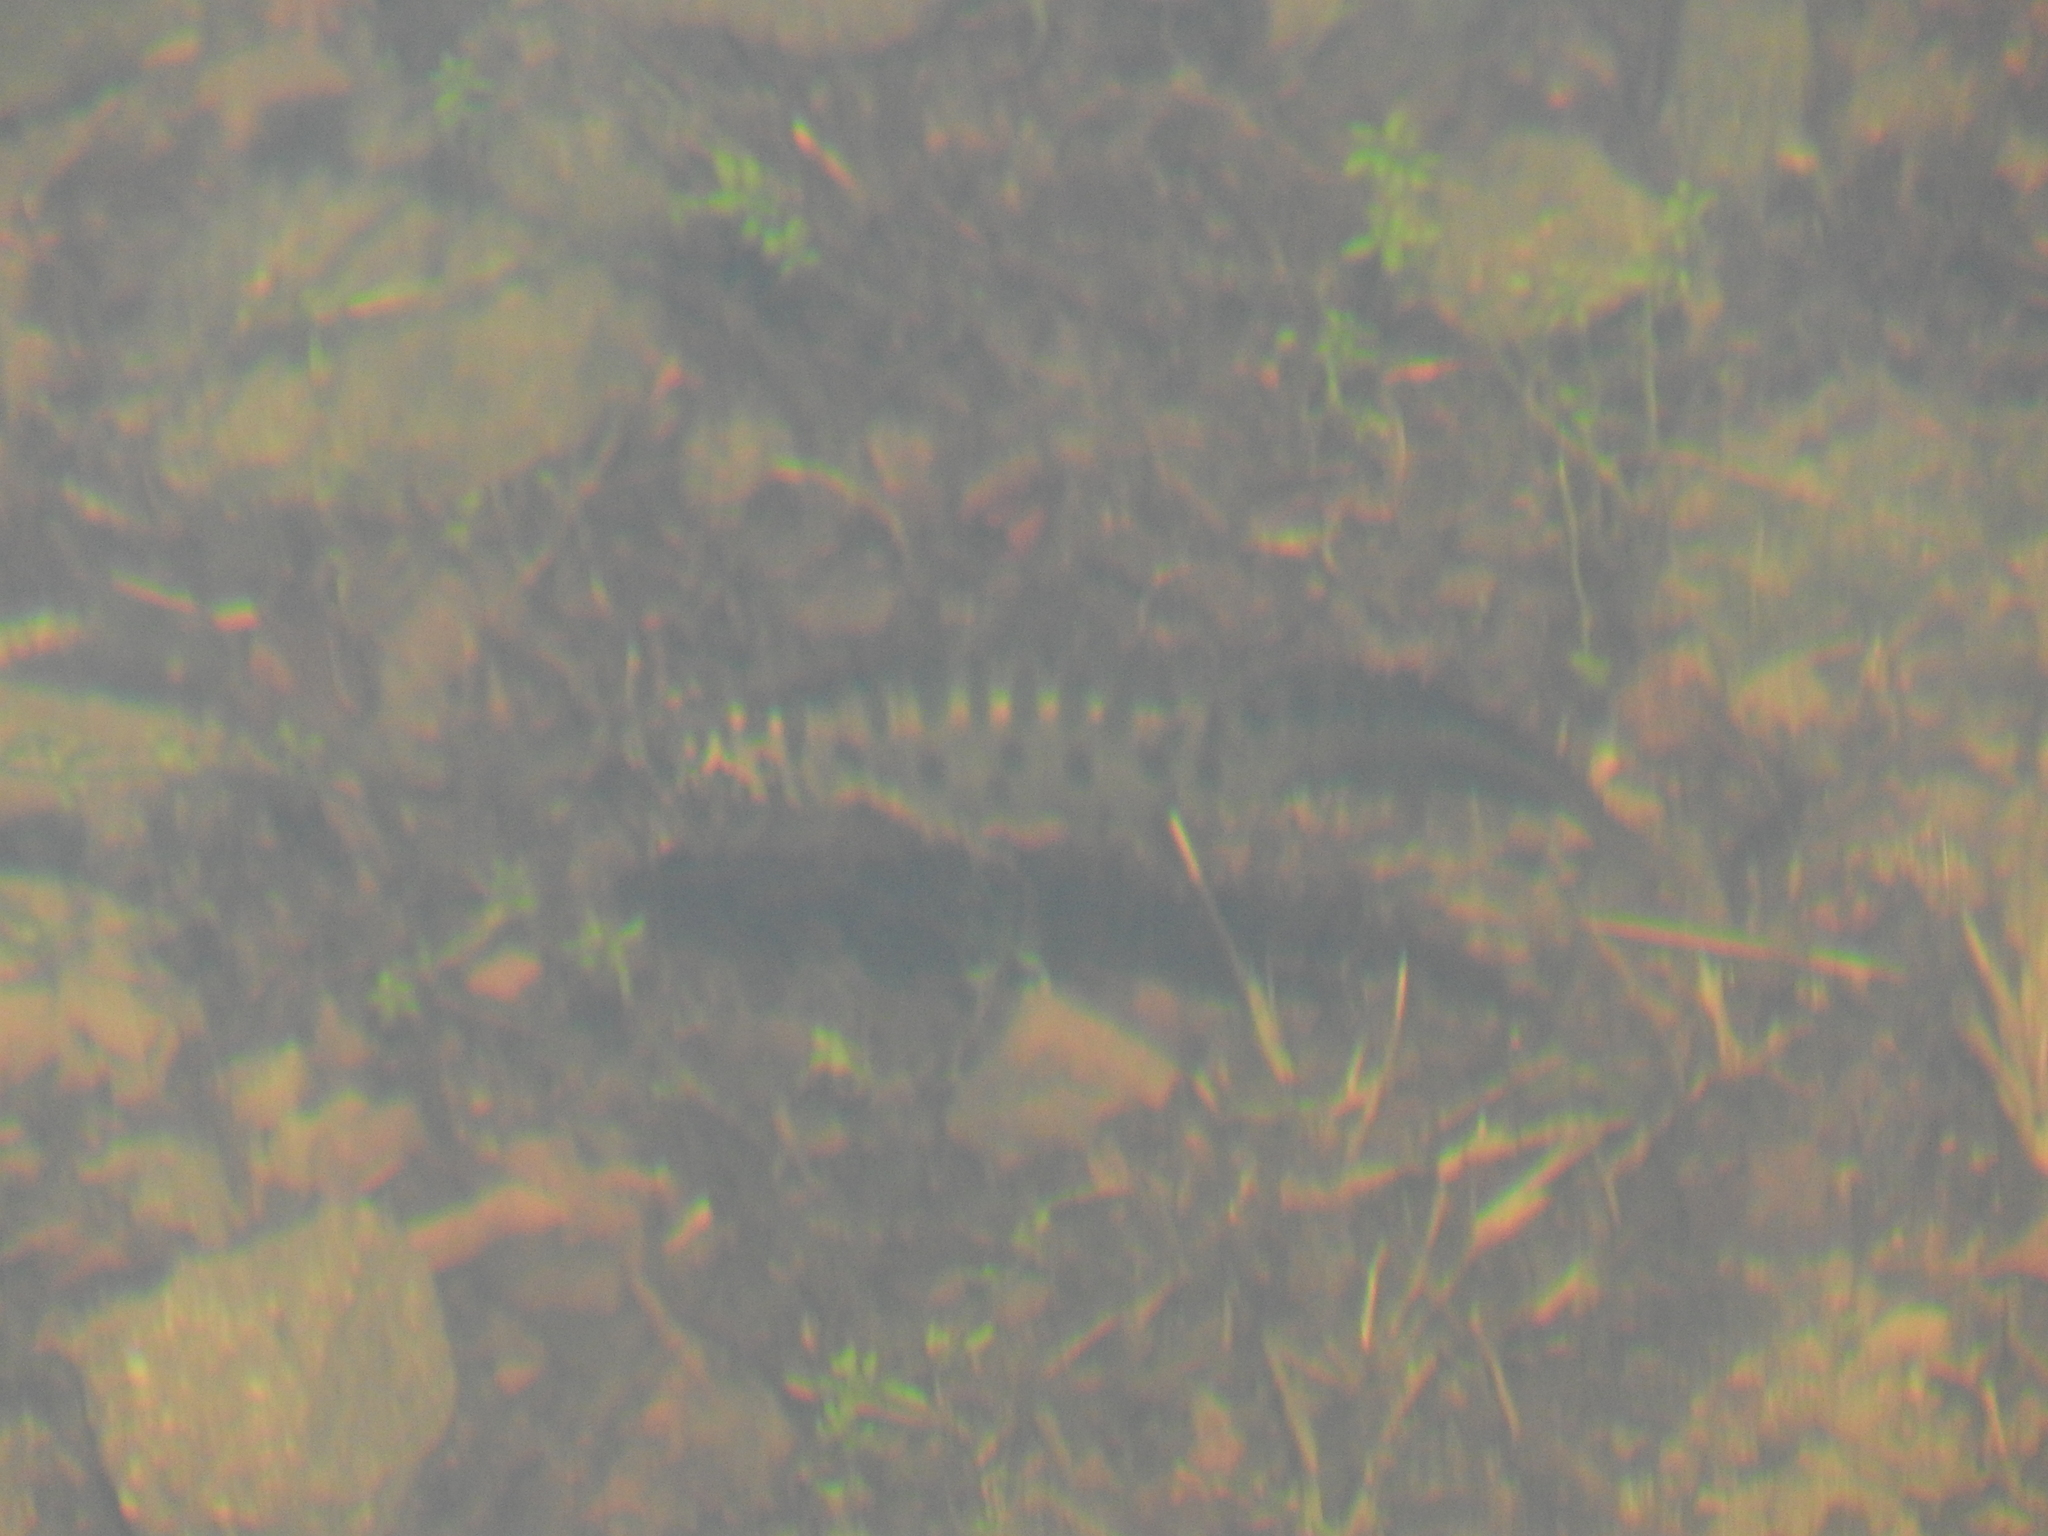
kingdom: Animalia
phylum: Chordata
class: Amphibia
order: Caudata
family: Salamandridae
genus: Triturus
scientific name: Triturus carnifex
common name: Italian crested newt
